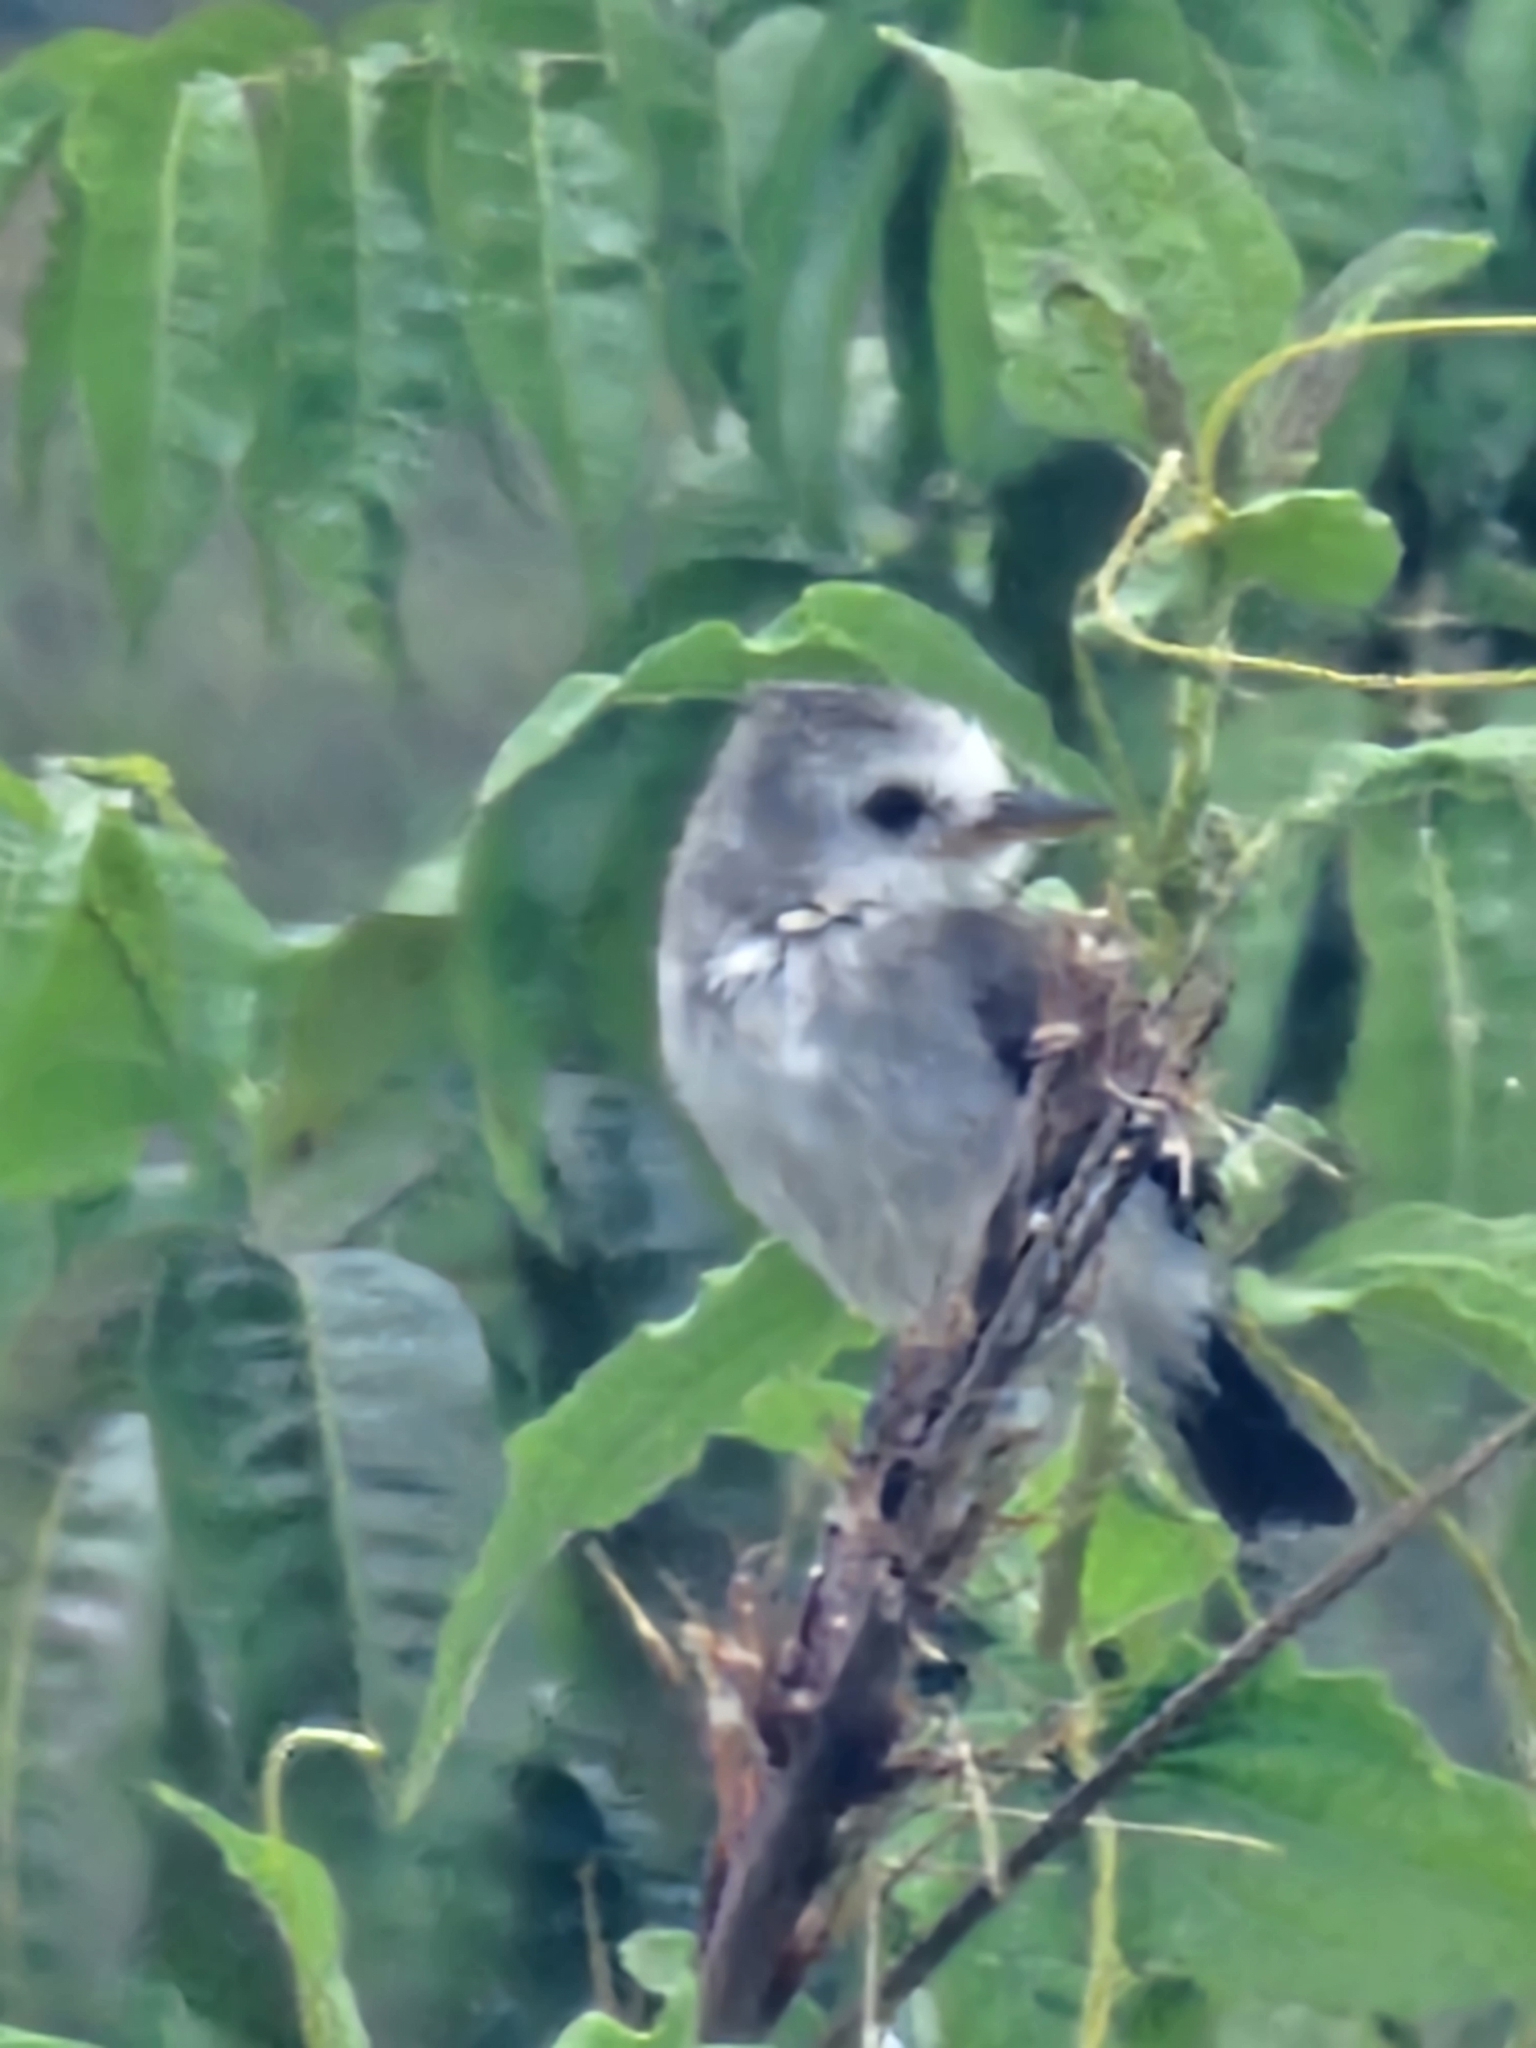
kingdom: Animalia
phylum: Chordata
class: Aves
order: Passeriformes
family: Tyrannidae
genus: Arundinicola
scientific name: Arundinicola leucocephala
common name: White-headed marsh tyrant
